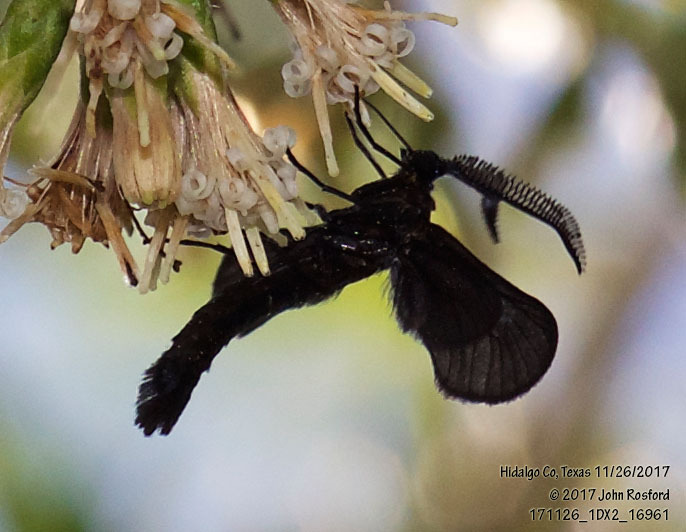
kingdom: Animalia
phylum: Arthropoda
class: Insecta
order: Lepidoptera
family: Zygaenidae
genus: Harrisina
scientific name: Harrisina coracina
